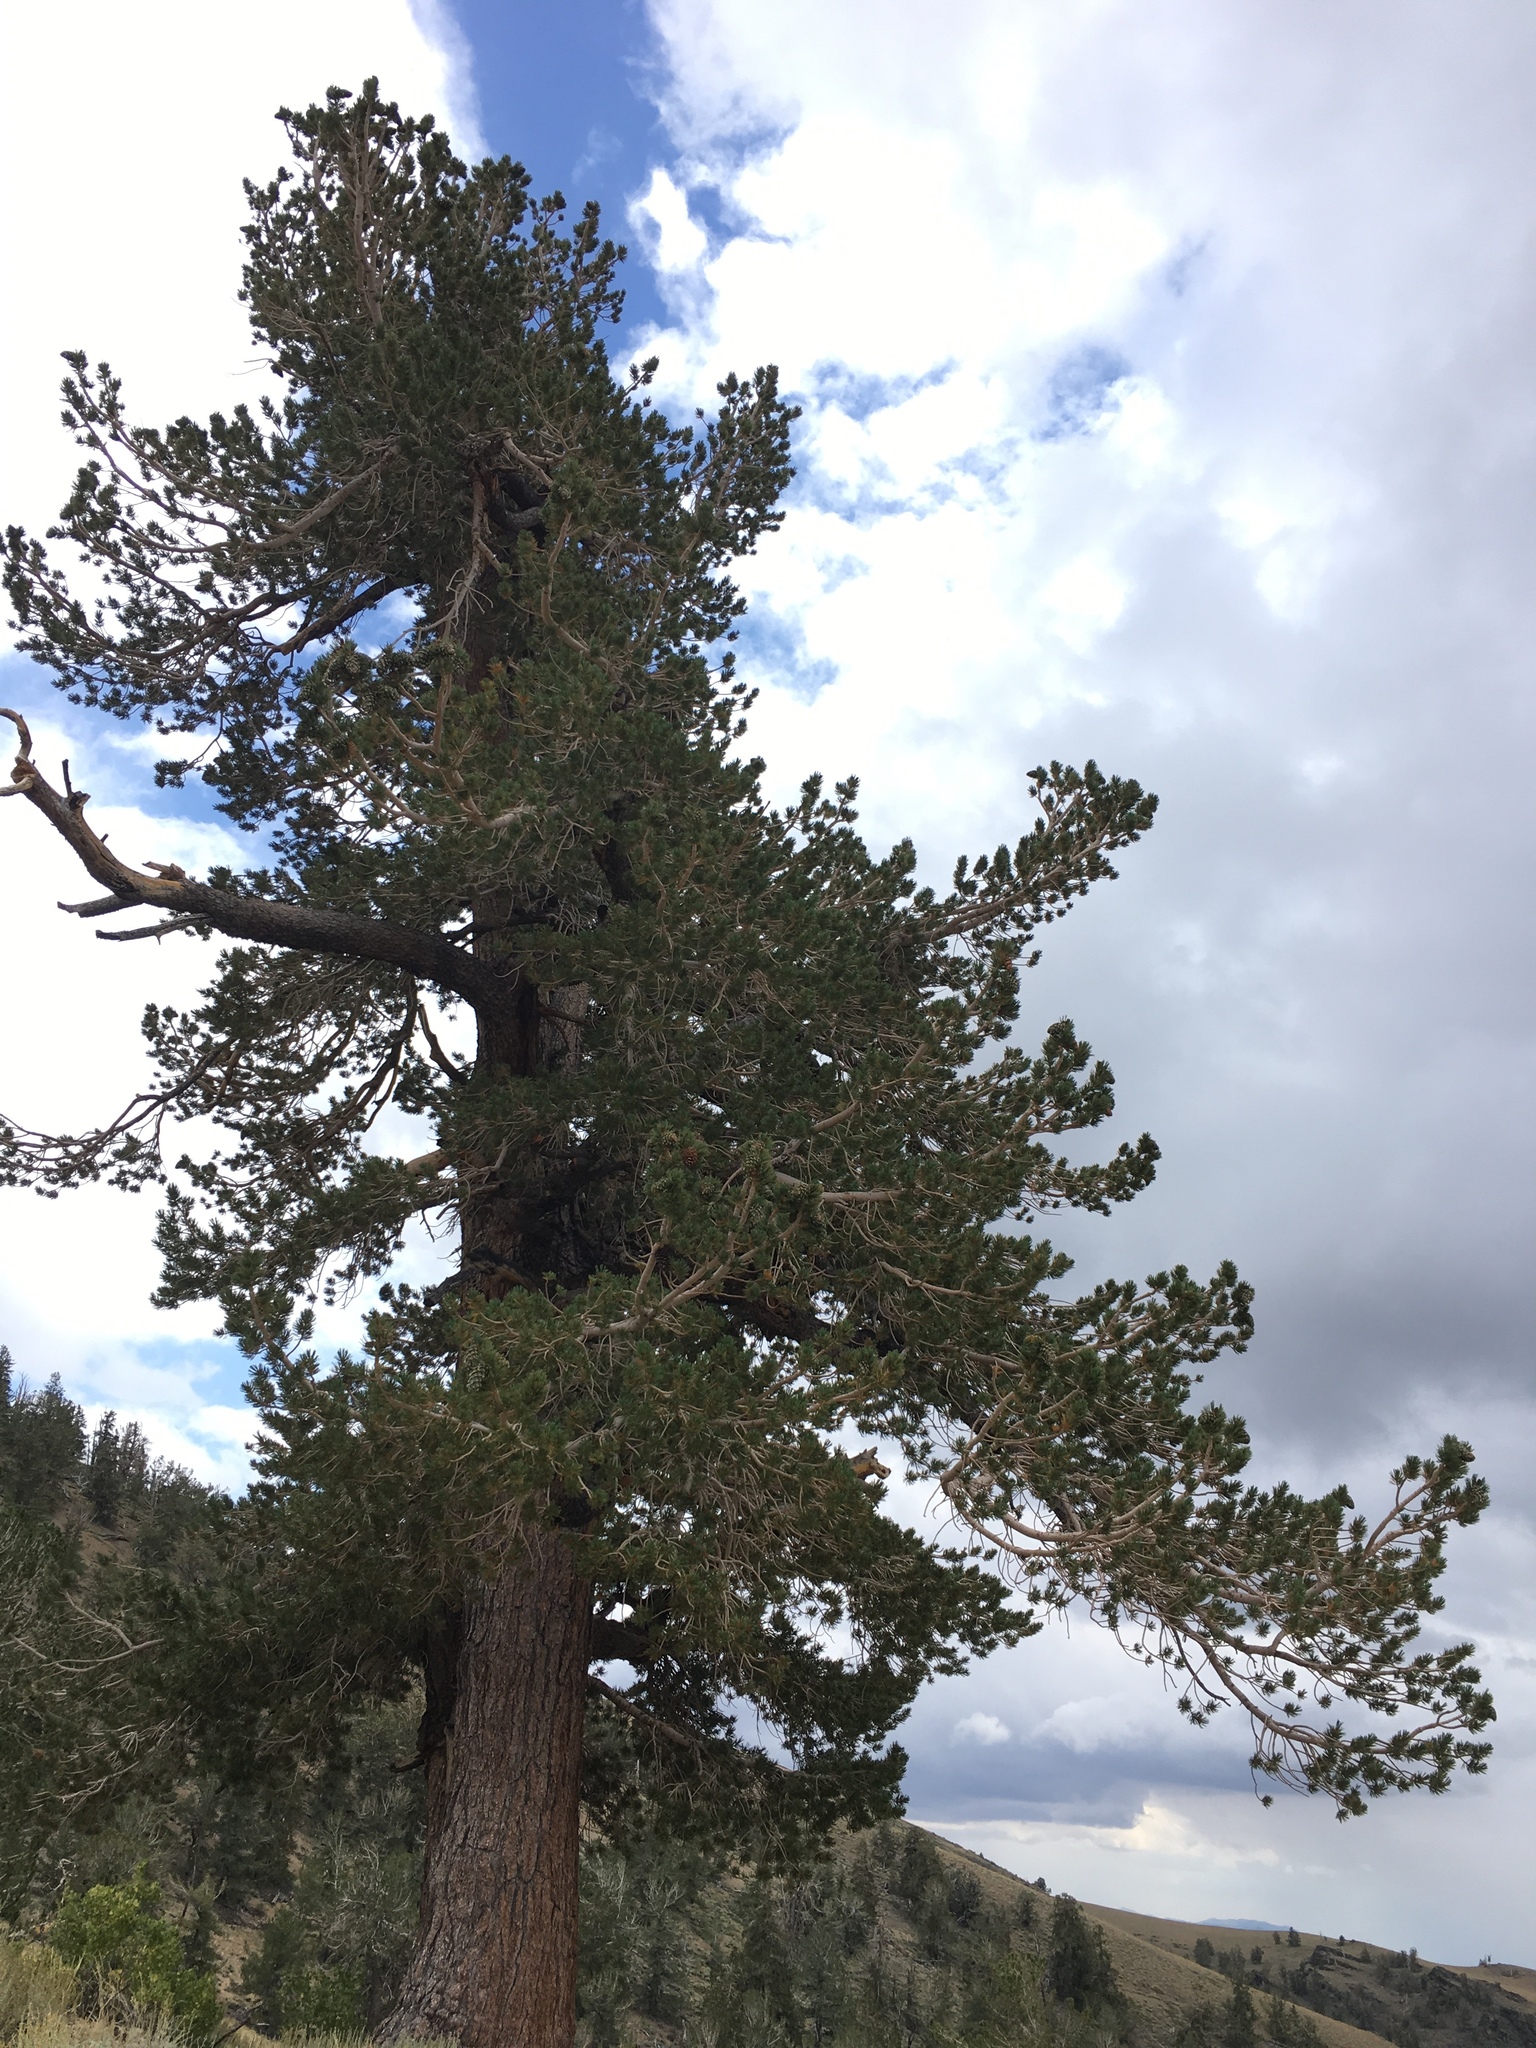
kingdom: Plantae
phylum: Tracheophyta
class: Pinopsida
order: Pinales
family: Pinaceae
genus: Pinus
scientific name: Pinus flexilis
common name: Limber pine
